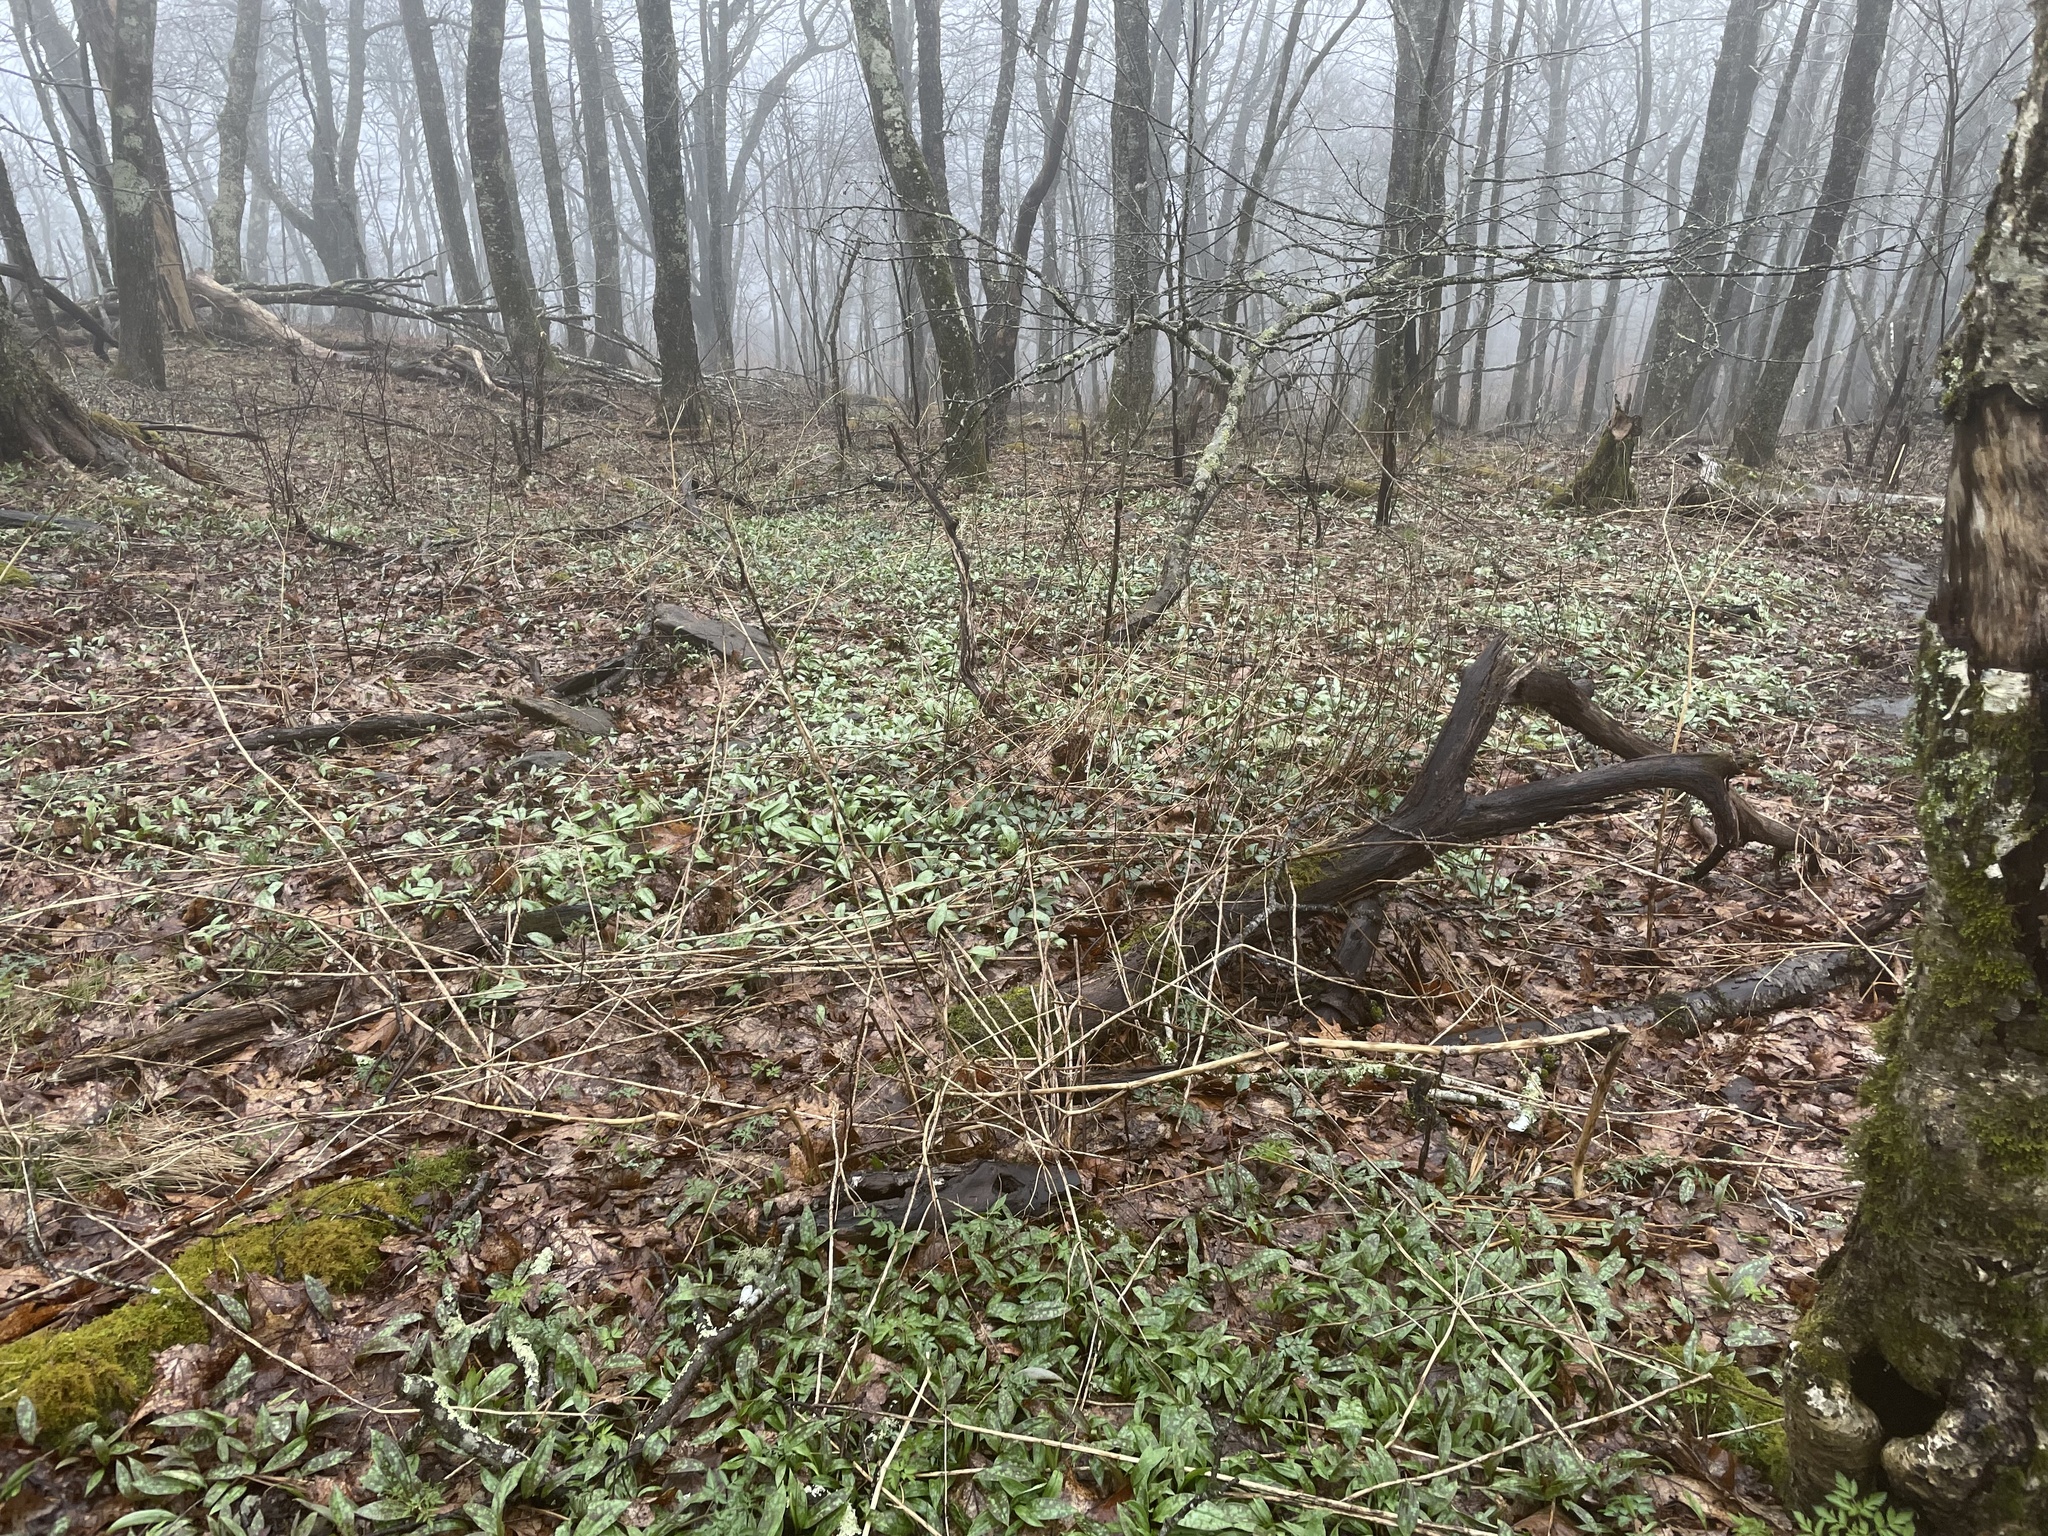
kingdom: Plantae
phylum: Tracheophyta
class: Liliopsida
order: Liliales
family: Liliaceae
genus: Erythronium
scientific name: Erythronium umbilicatum
